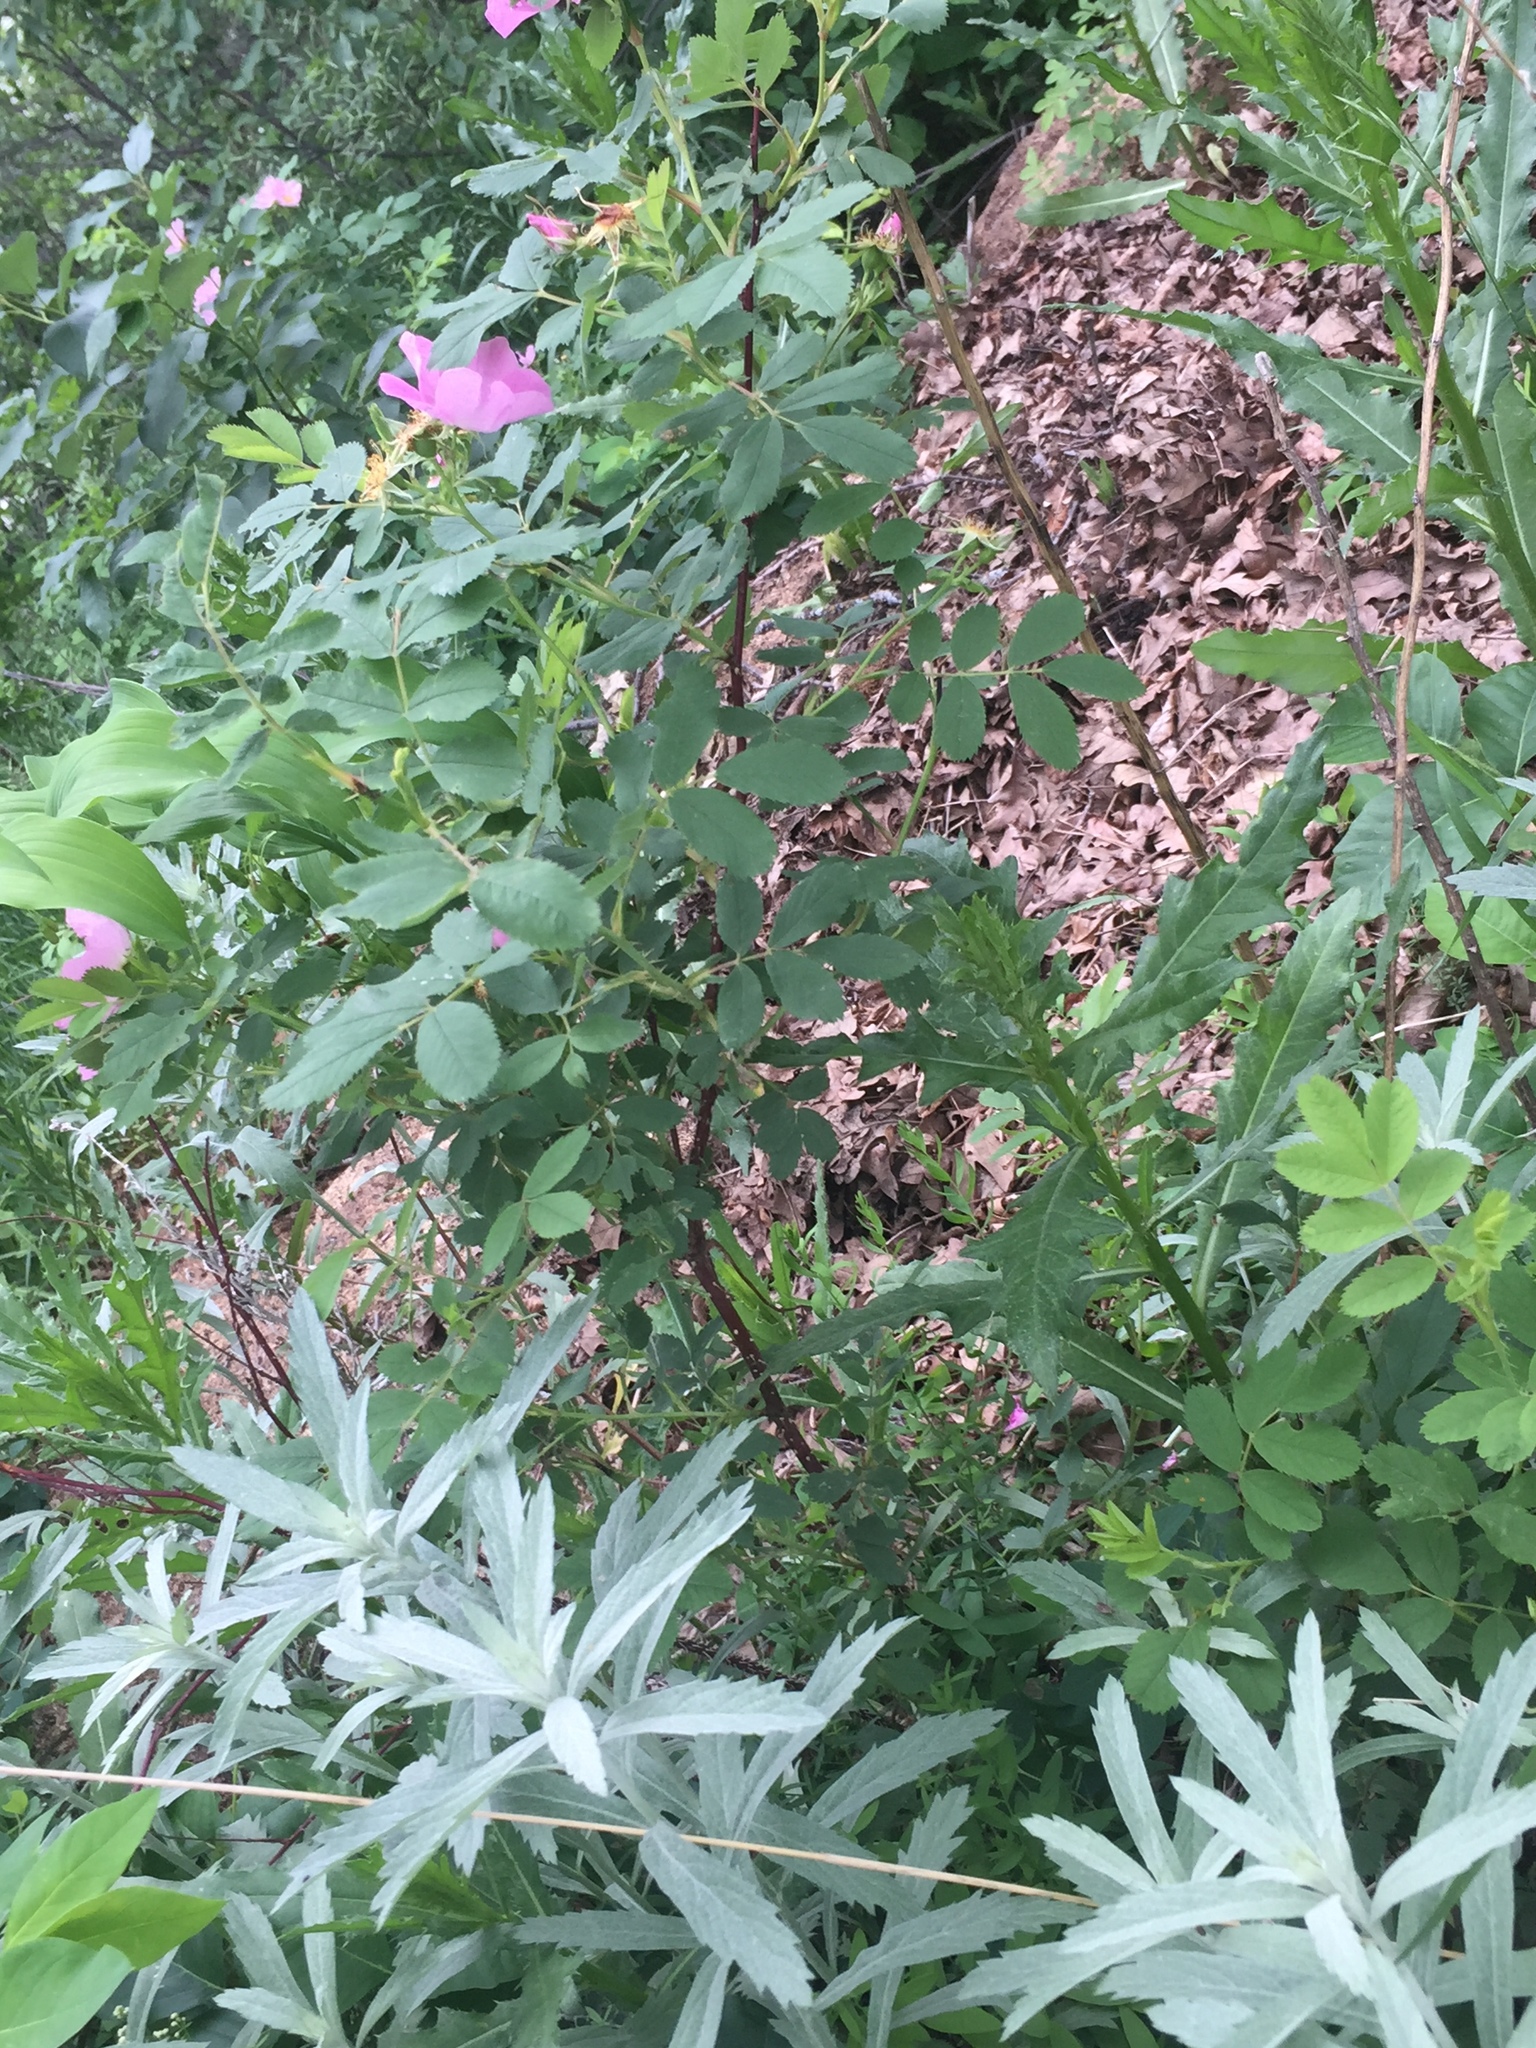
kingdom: Plantae
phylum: Tracheophyta
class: Magnoliopsida
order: Rosales
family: Rosaceae
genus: Rosa
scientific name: Rosa acicularis
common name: Prickly rose
